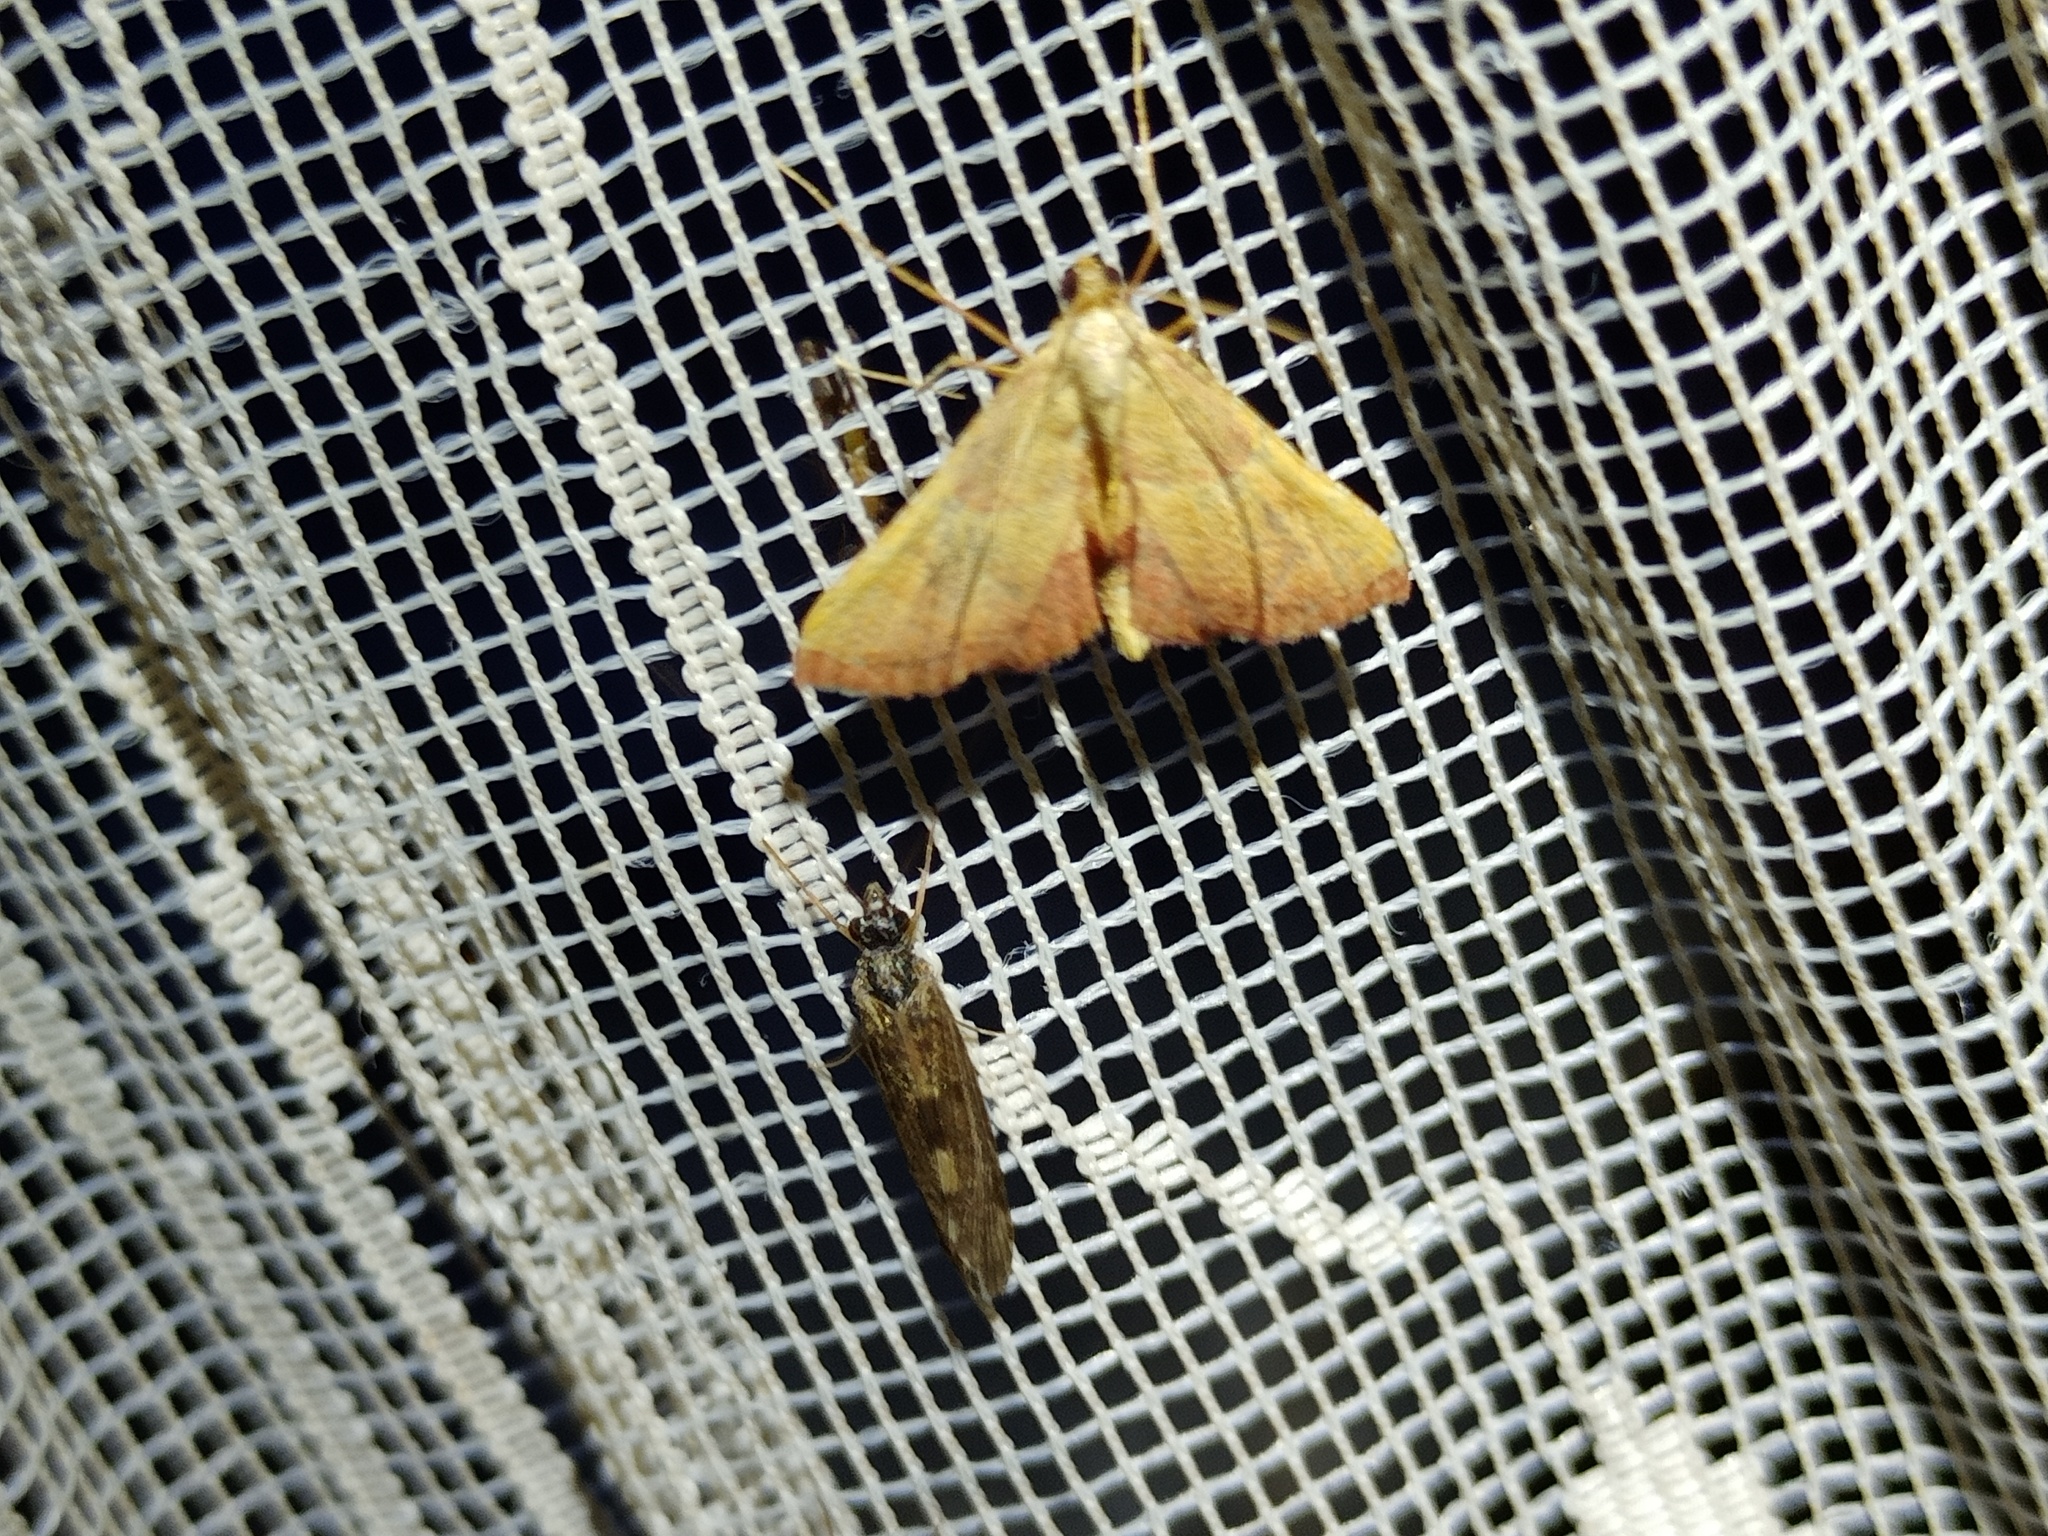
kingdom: Animalia
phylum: Arthropoda
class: Insecta
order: Lepidoptera
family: Pyralidae
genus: Endotricha
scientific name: Endotricha flammealis
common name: Rosy tabby
